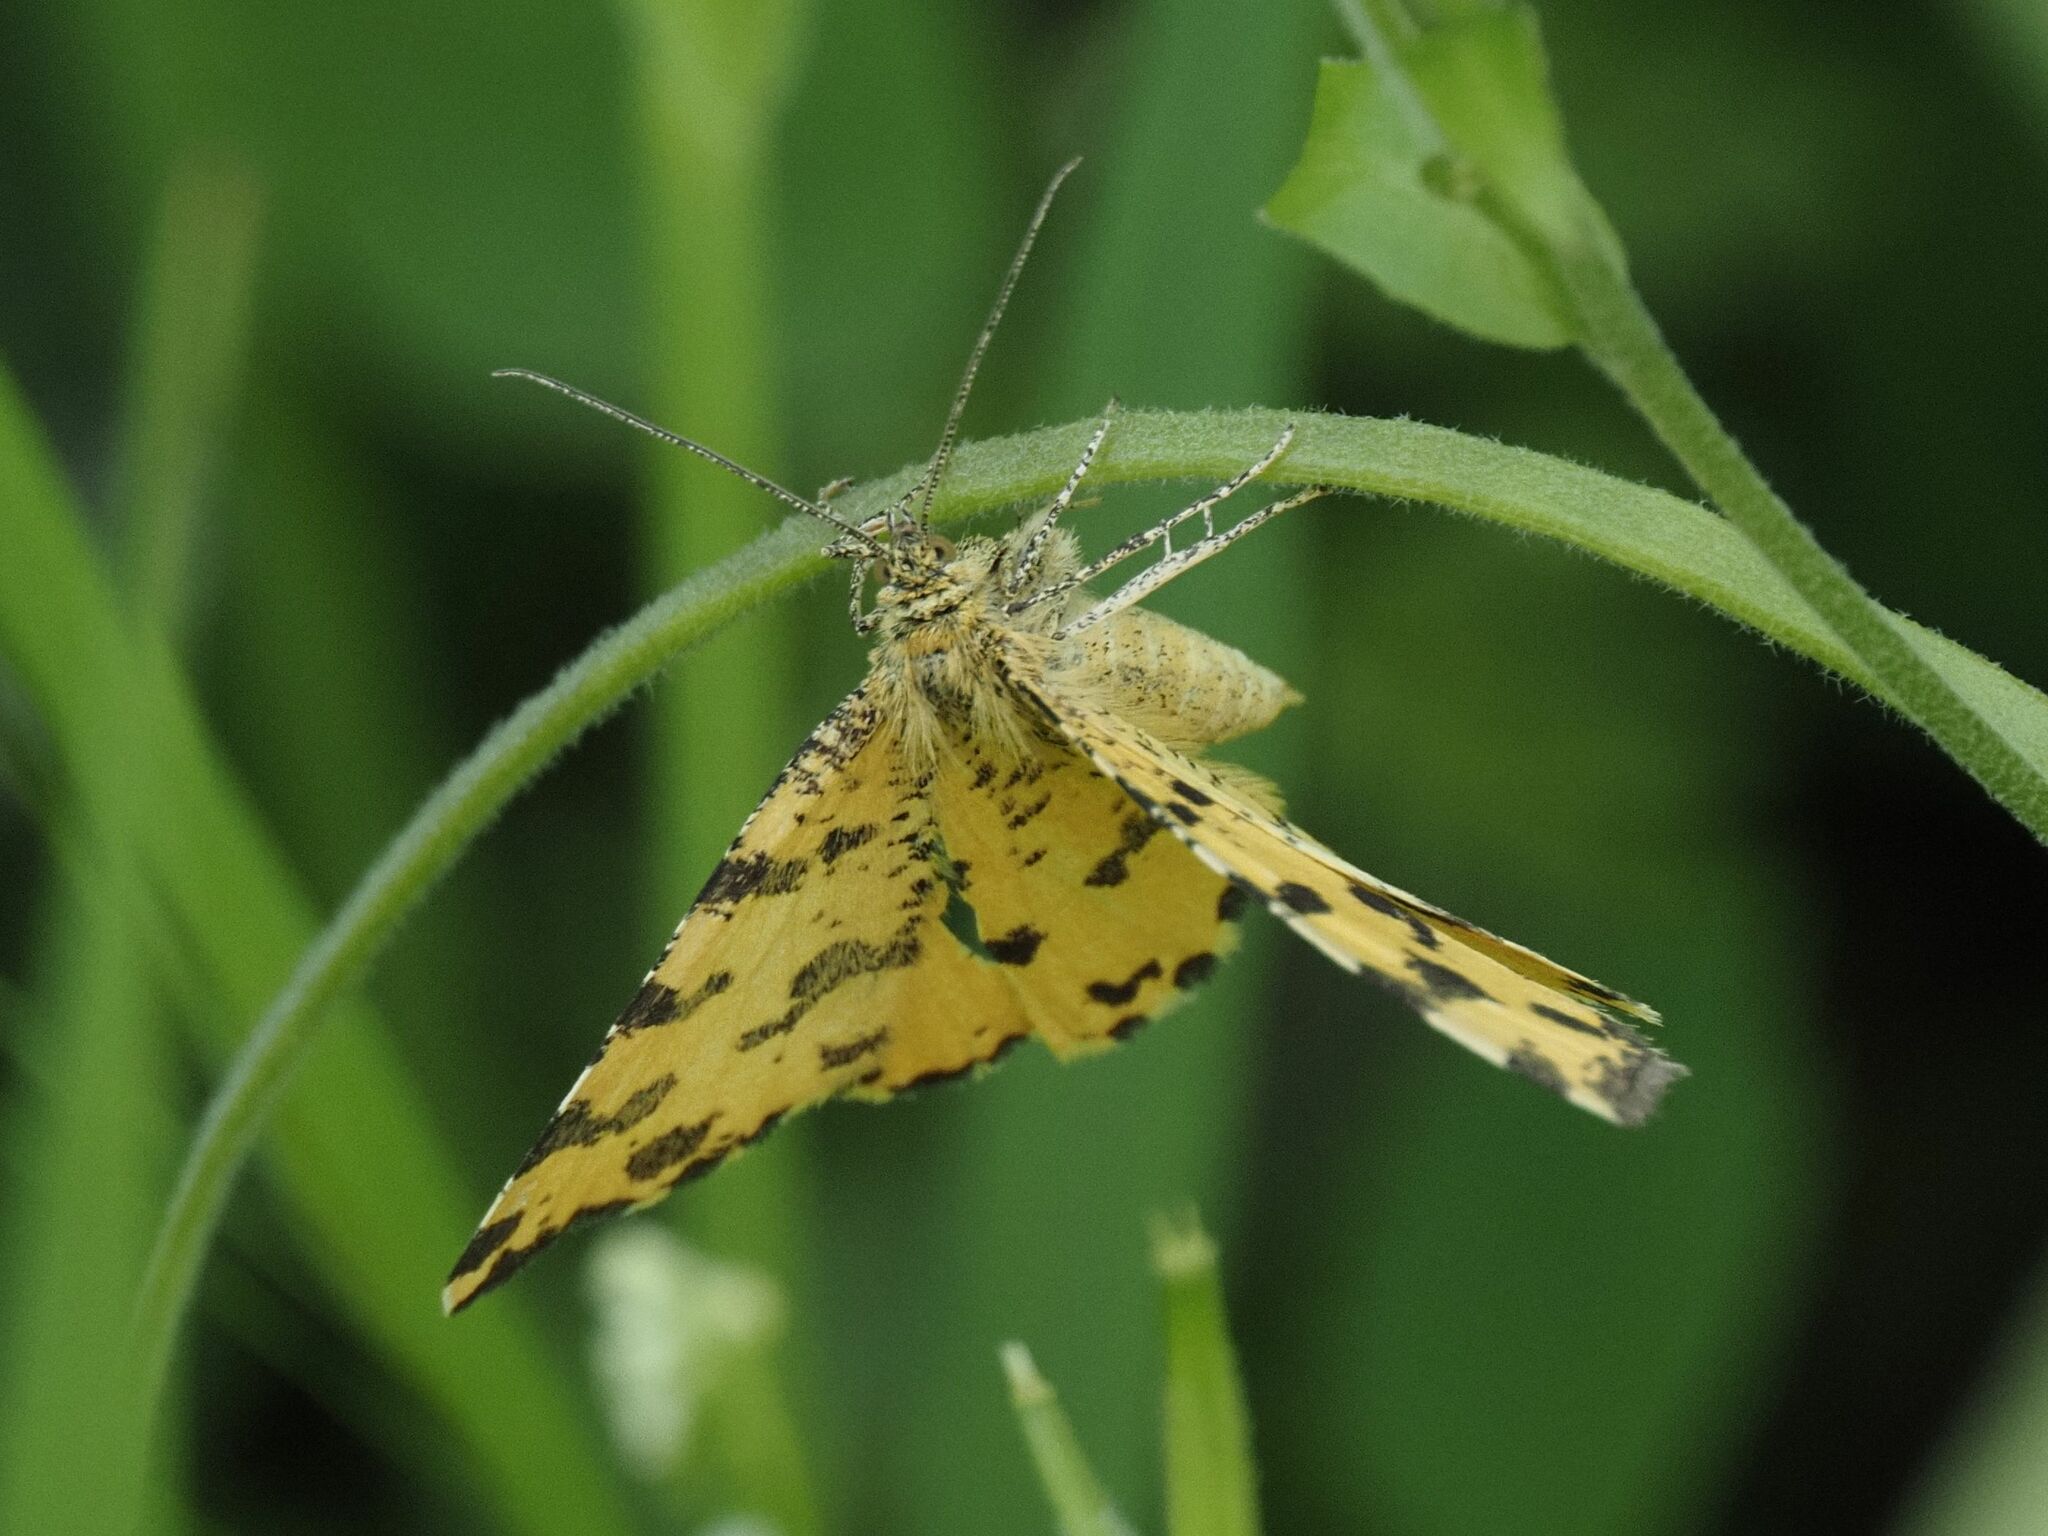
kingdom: Animalia
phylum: Arthropoda
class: Insecta
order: Lepidoptera
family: Geometridae
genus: Pseudopanthera
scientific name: Pseudopanthera macularia
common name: Speckled yellow
